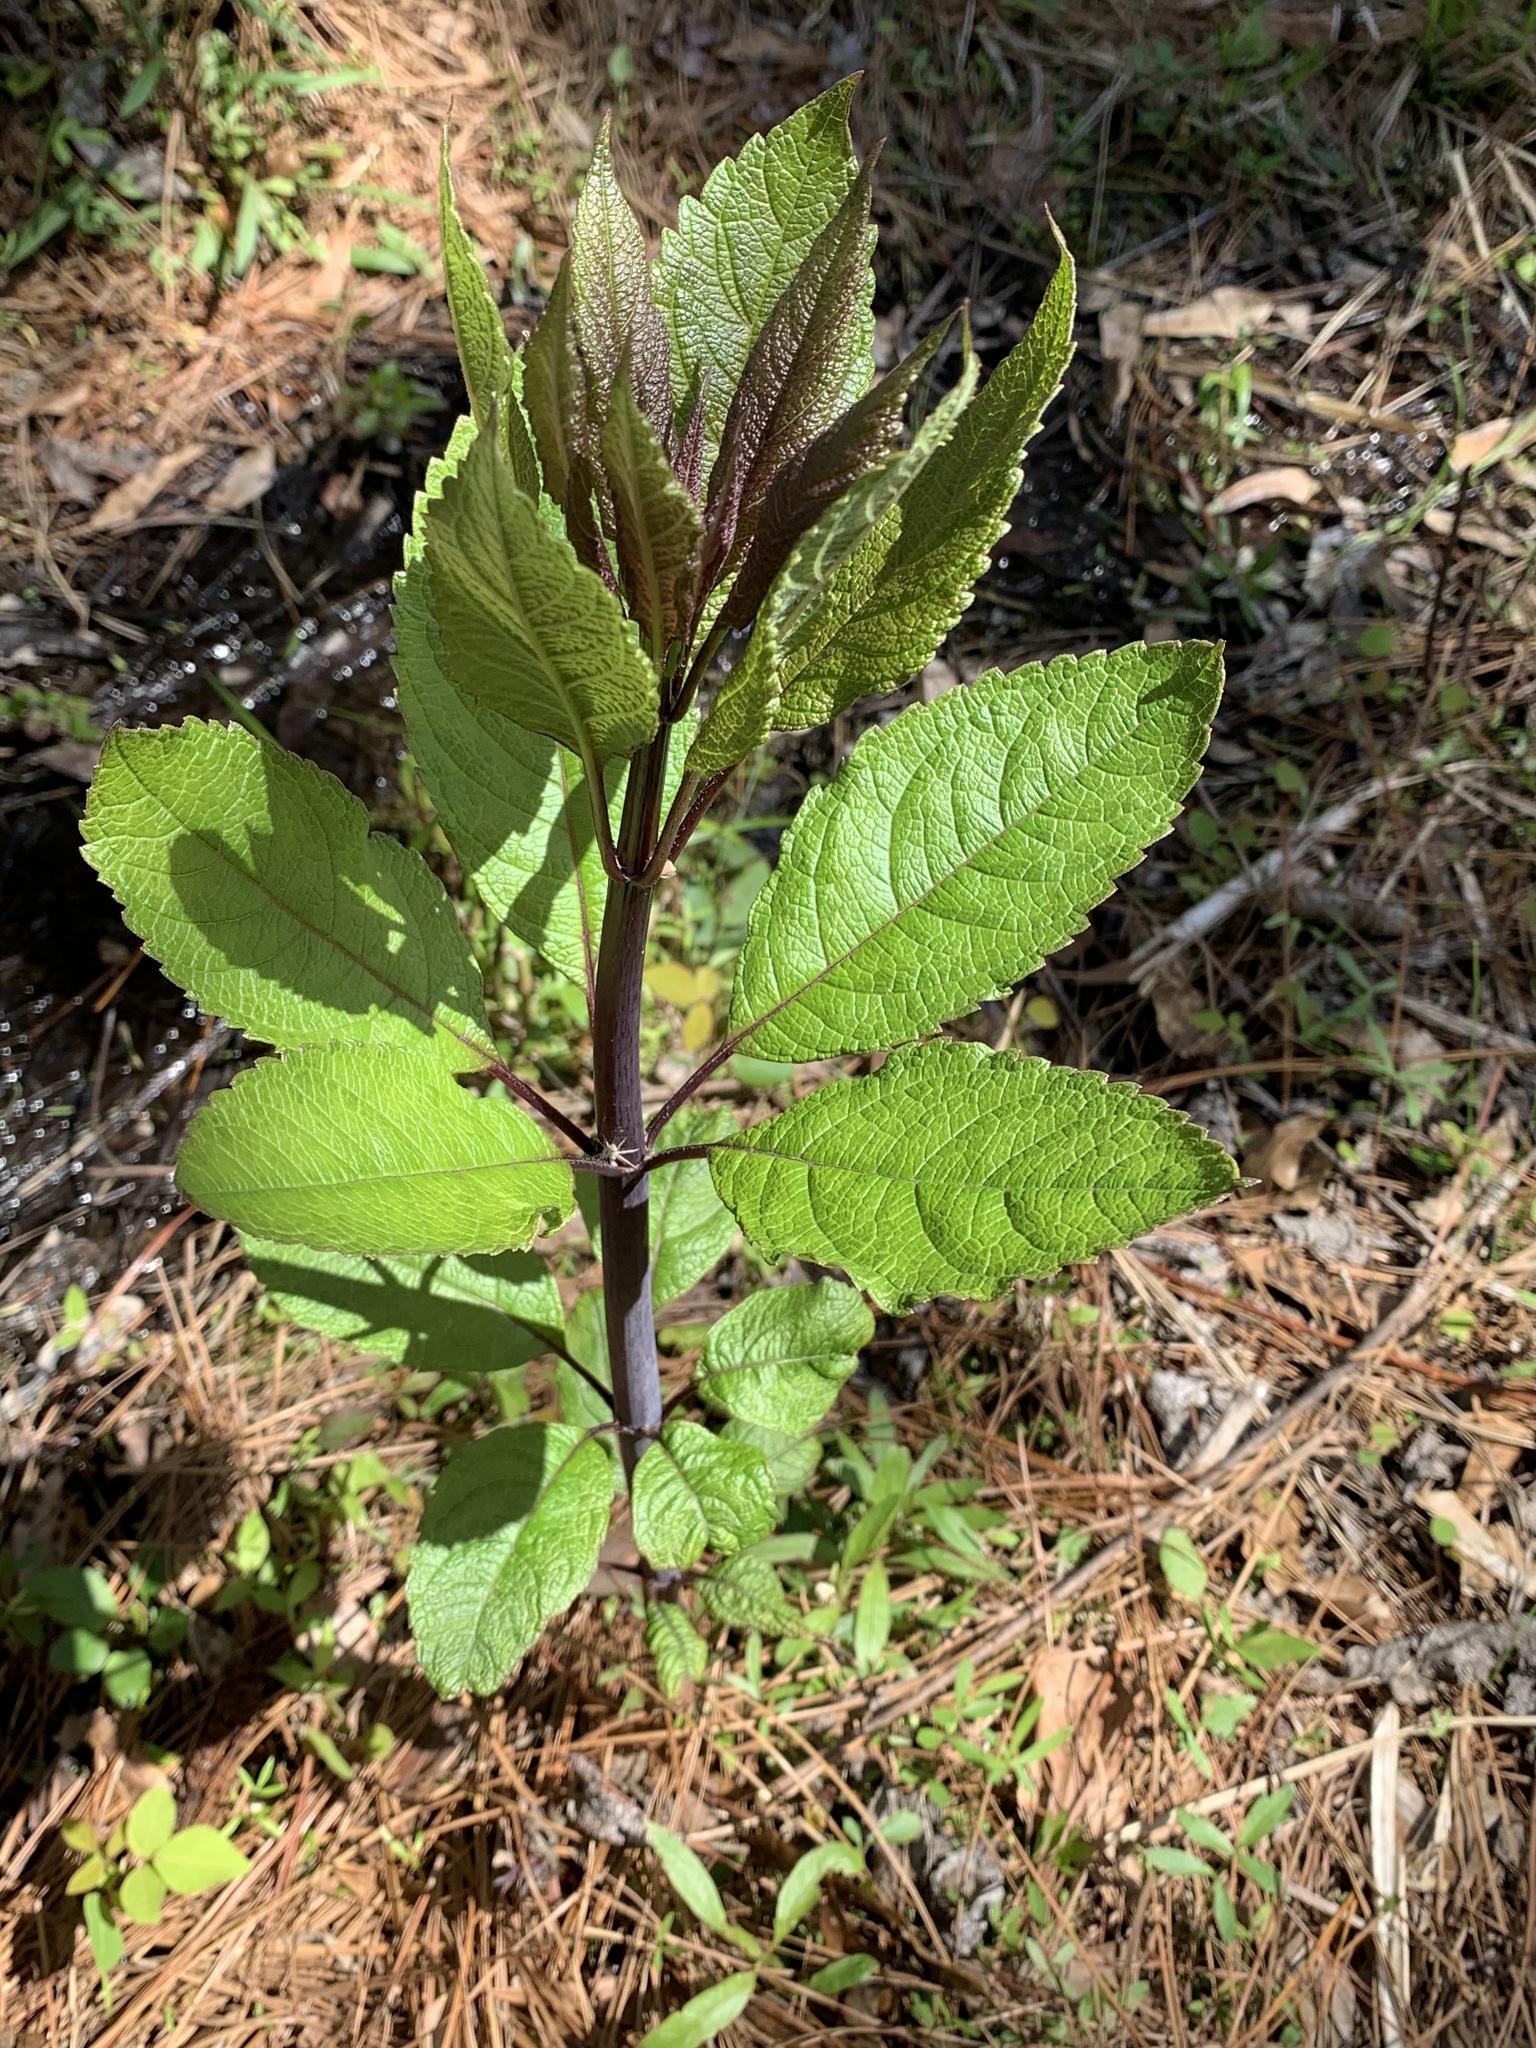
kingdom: Plantae
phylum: Tracheophyta
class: Magnoliopsida
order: Asterales
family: Asteraceae
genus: Eutrochium
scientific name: Eutrochium fistulosum
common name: Trumpetweed
